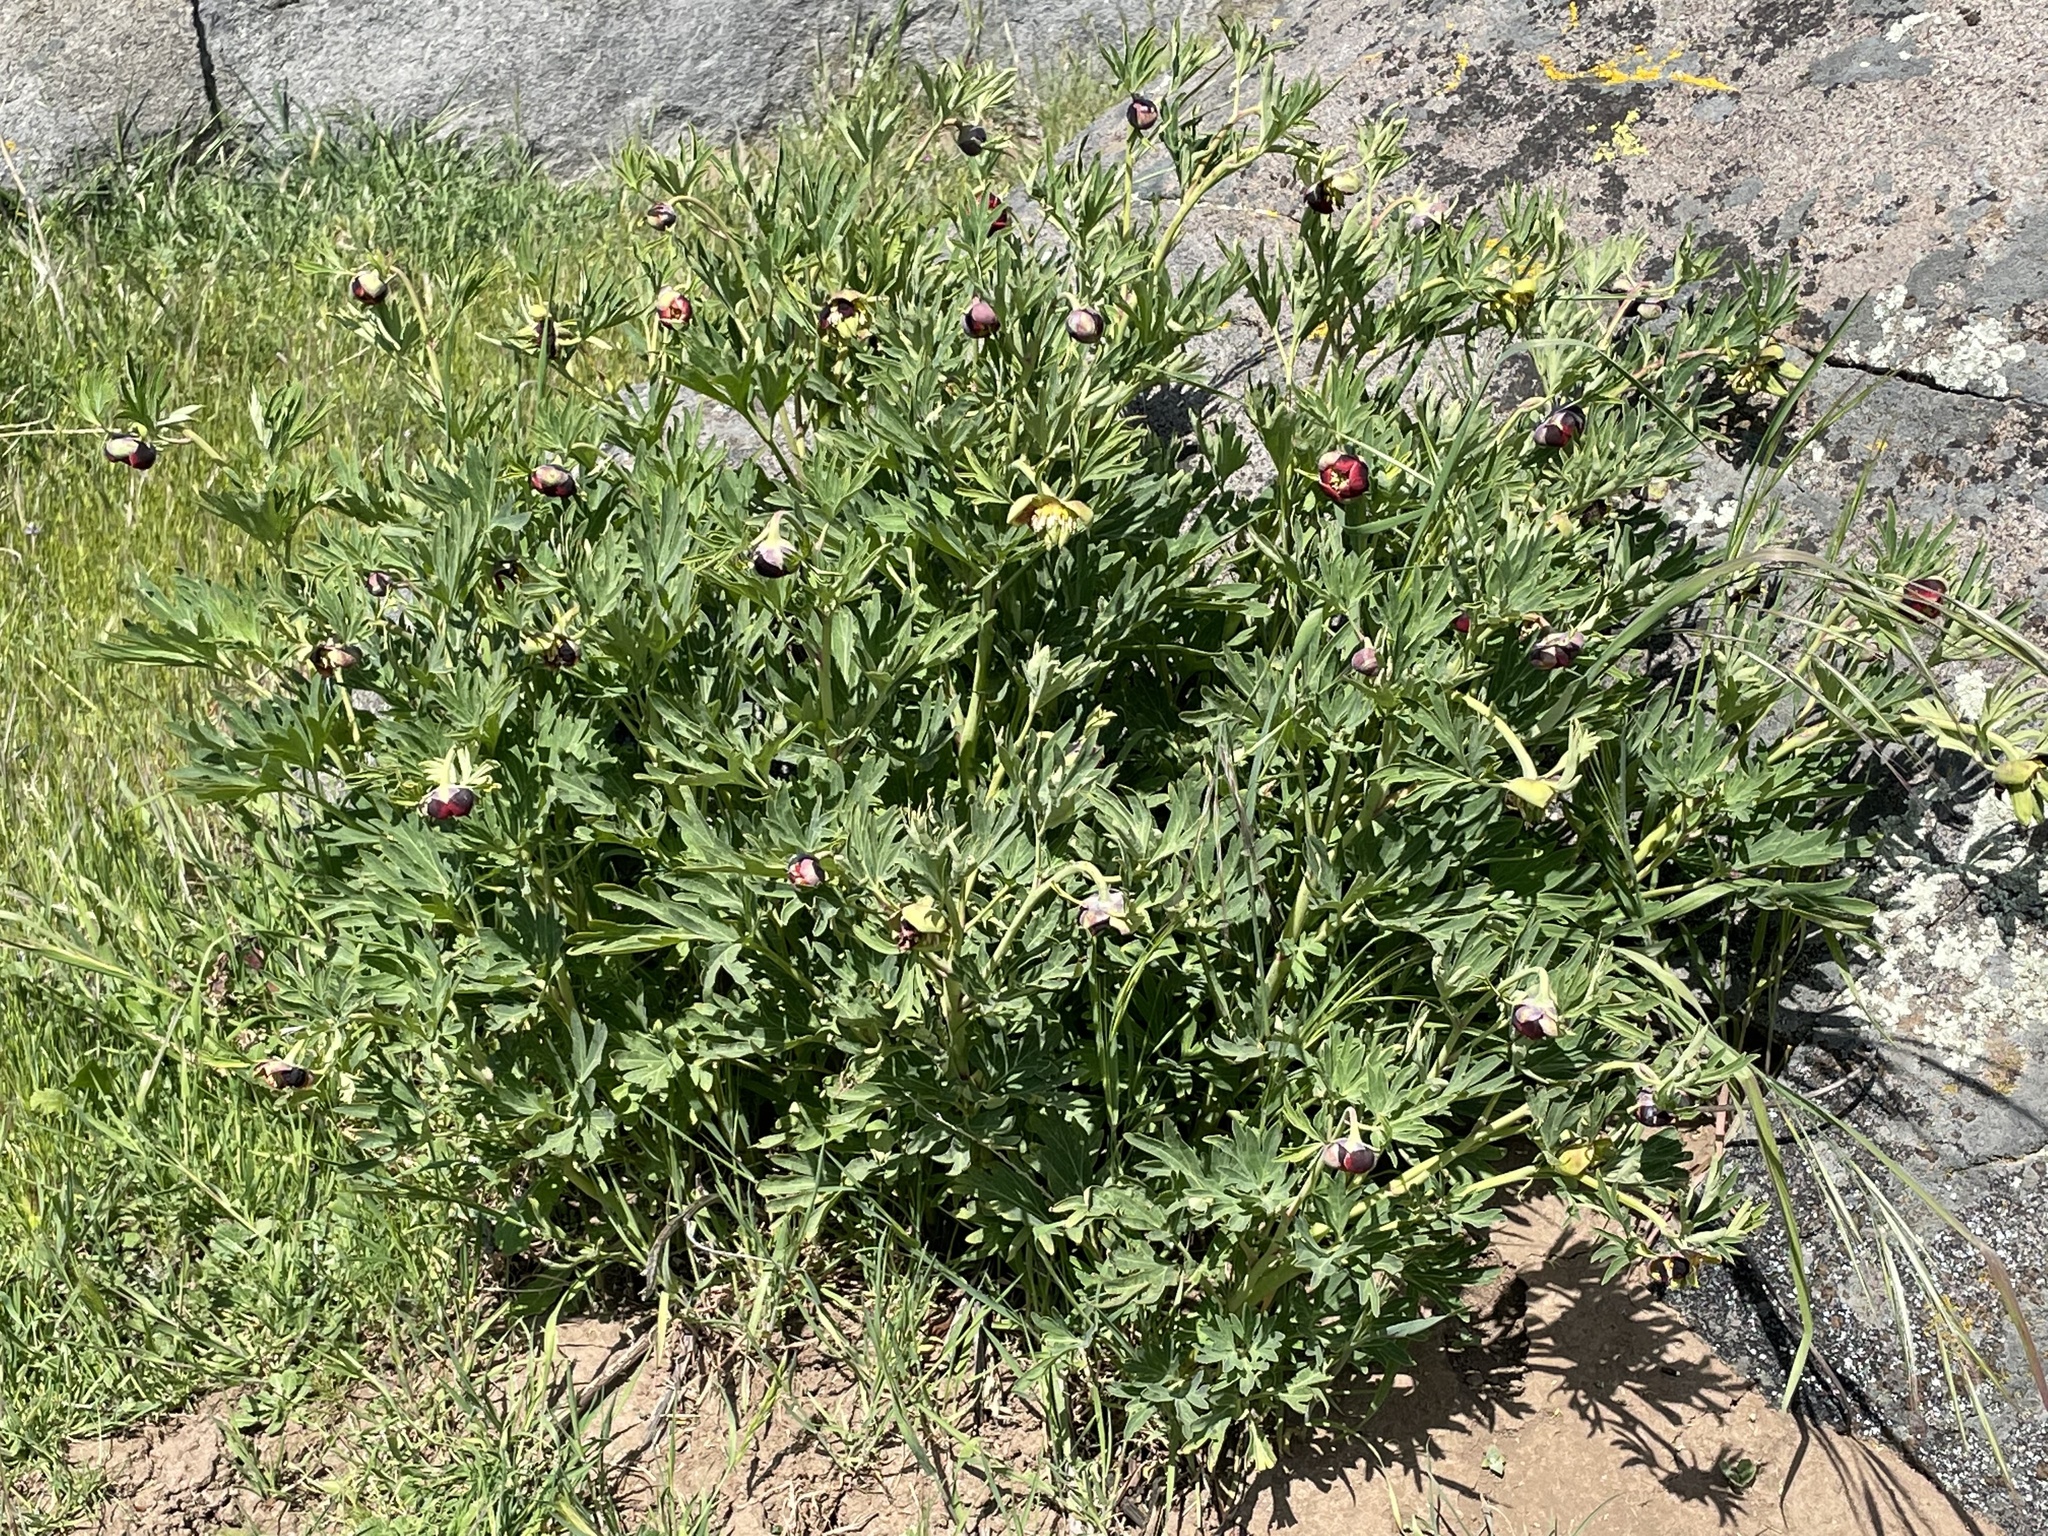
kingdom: Plantae
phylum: Tracheophyta
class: Magnoliopsida
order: Saxifragales
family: Paeoniaceae
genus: Paeonia
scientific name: Paeonia californica
